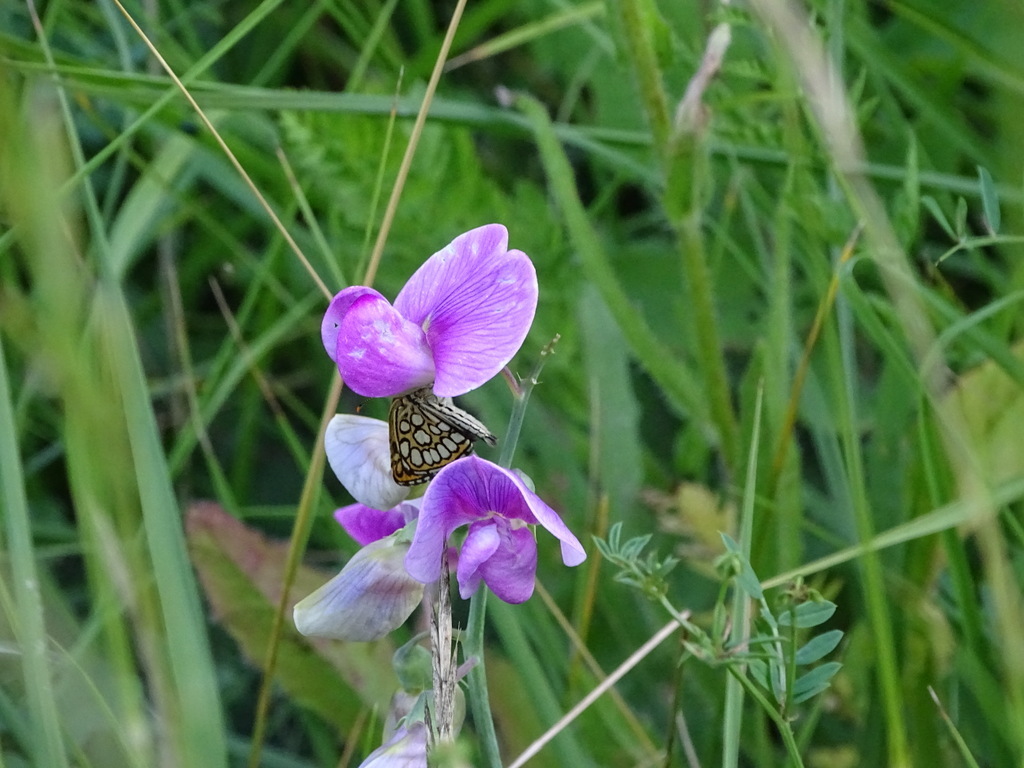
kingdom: Animalia
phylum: Arthropoda
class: Insecta
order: Lepidoptera
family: Hesperiidae
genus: Heteropterus
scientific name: Heteropterus morpheus
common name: Large chequered skipper
